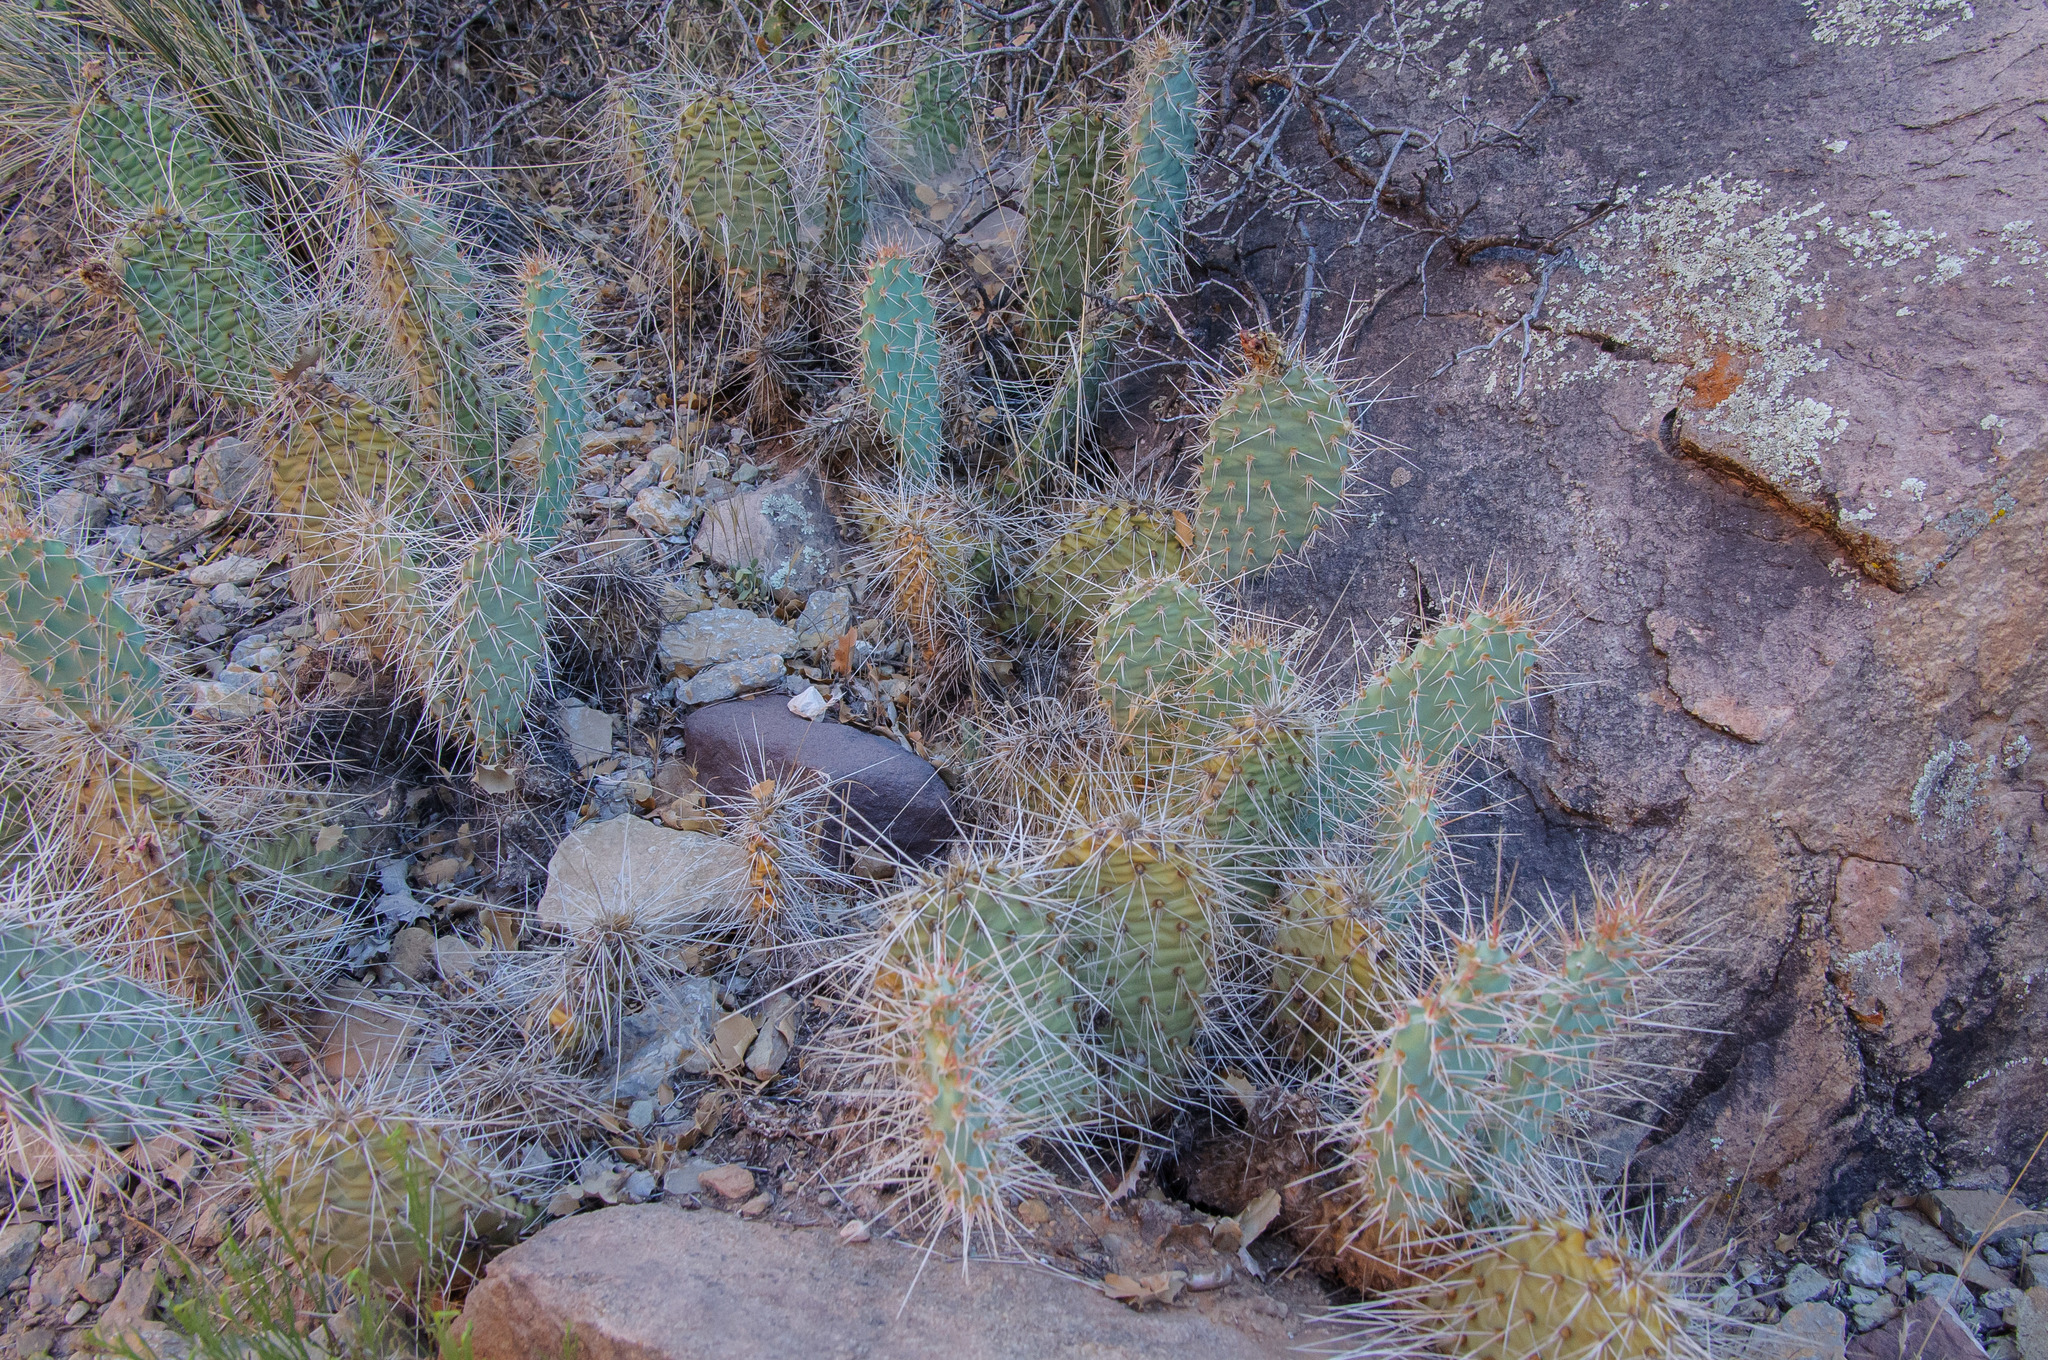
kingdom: Plantae
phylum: Tracheophyta
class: Magnoliopsida
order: Caryophyllales
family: Cactaceae
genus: Opuntia
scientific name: Opuntia polyacantha
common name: Plains prickly-pear
